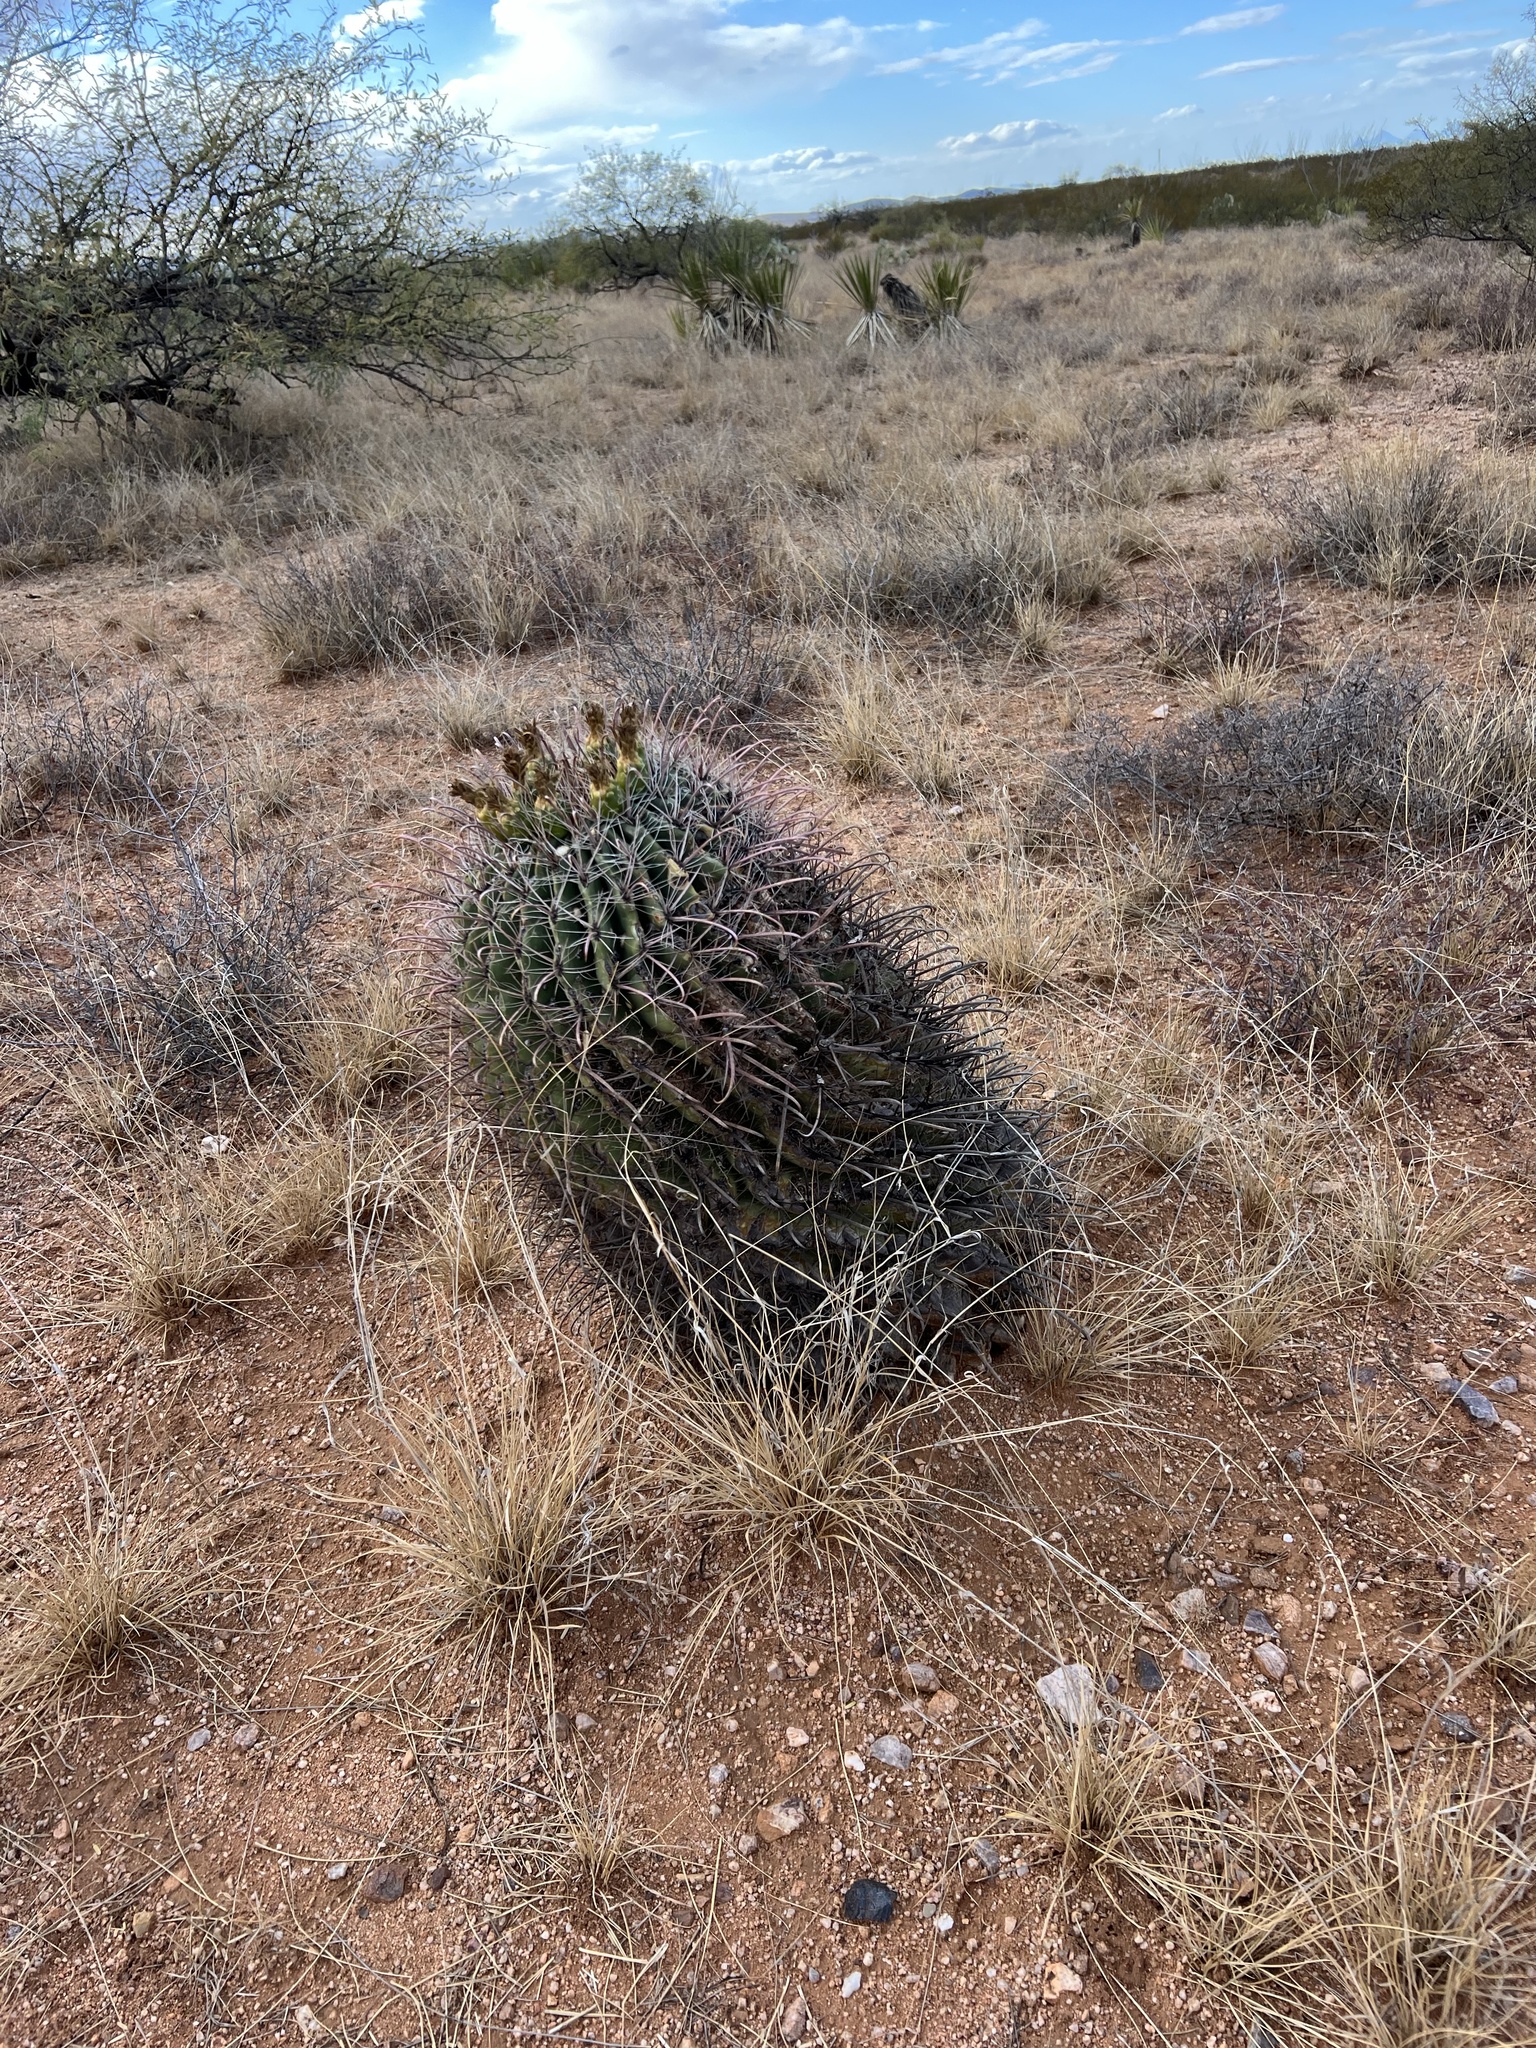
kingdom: Plantae
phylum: Tracheophyta
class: Magnoliopsida
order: Caryophyllales
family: Cactaceae
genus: Ferocactus
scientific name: Ferocactus wislizeni
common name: Candy barrel cactus
